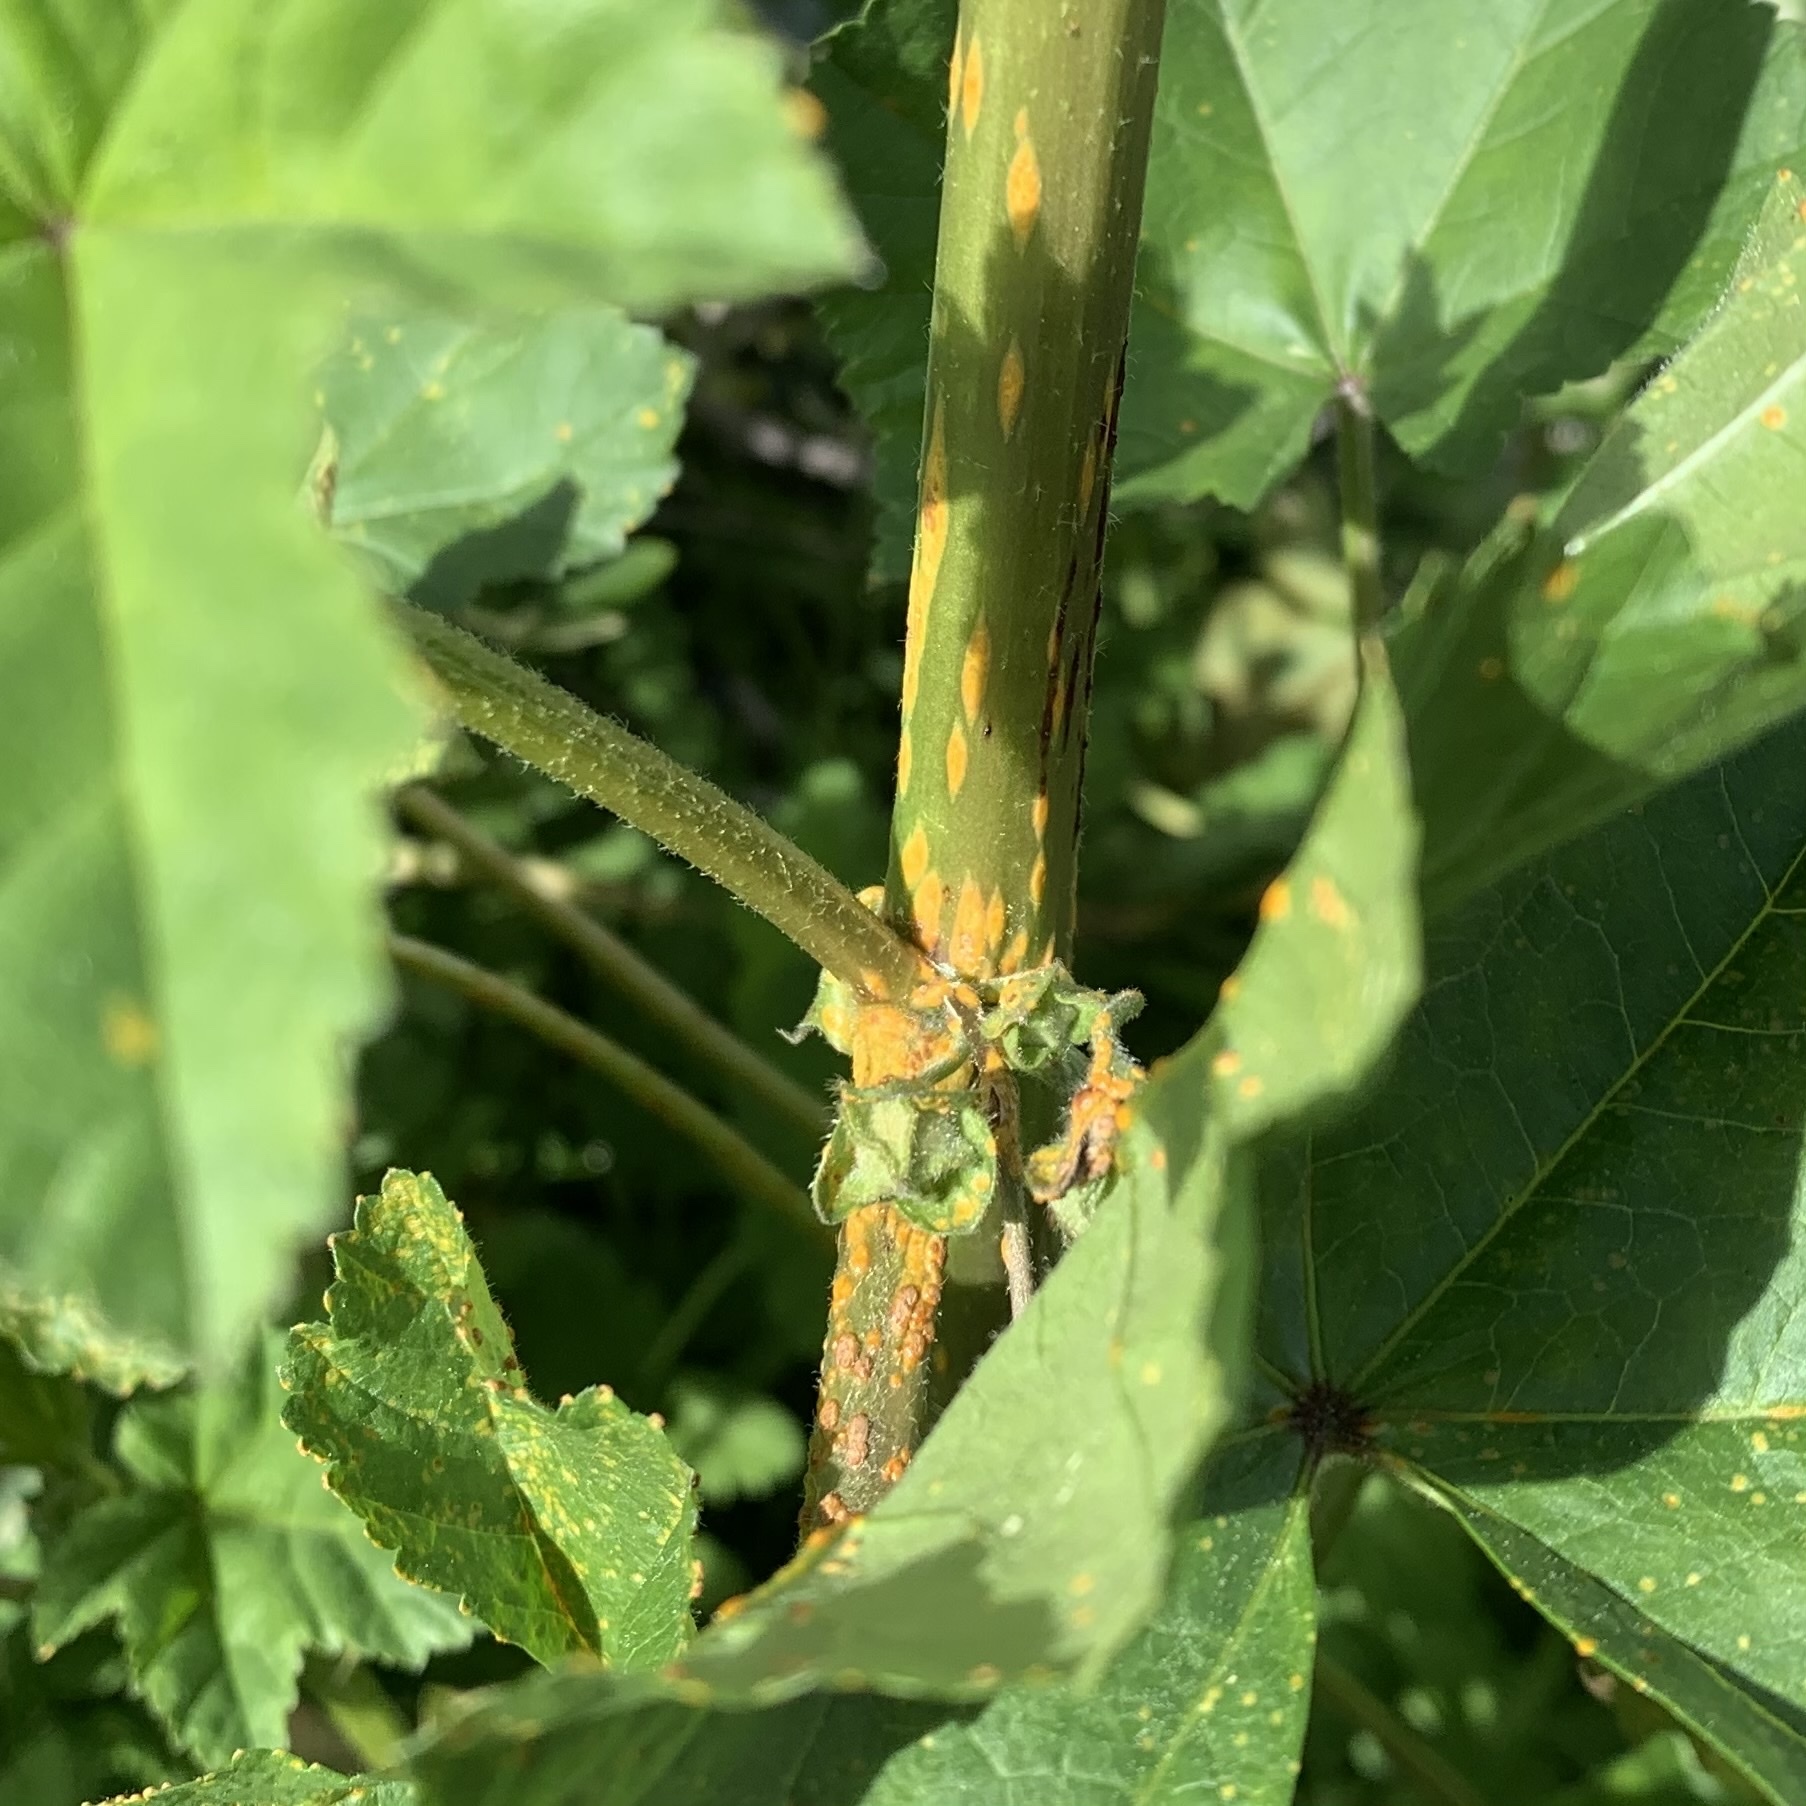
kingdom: Fungi
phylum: Basidiomycota
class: Pucciniomycetes
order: Pucciniales
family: Pucciniaceae
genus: Puccinia
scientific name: Puccinia malvacearum
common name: Hollyhock rust
